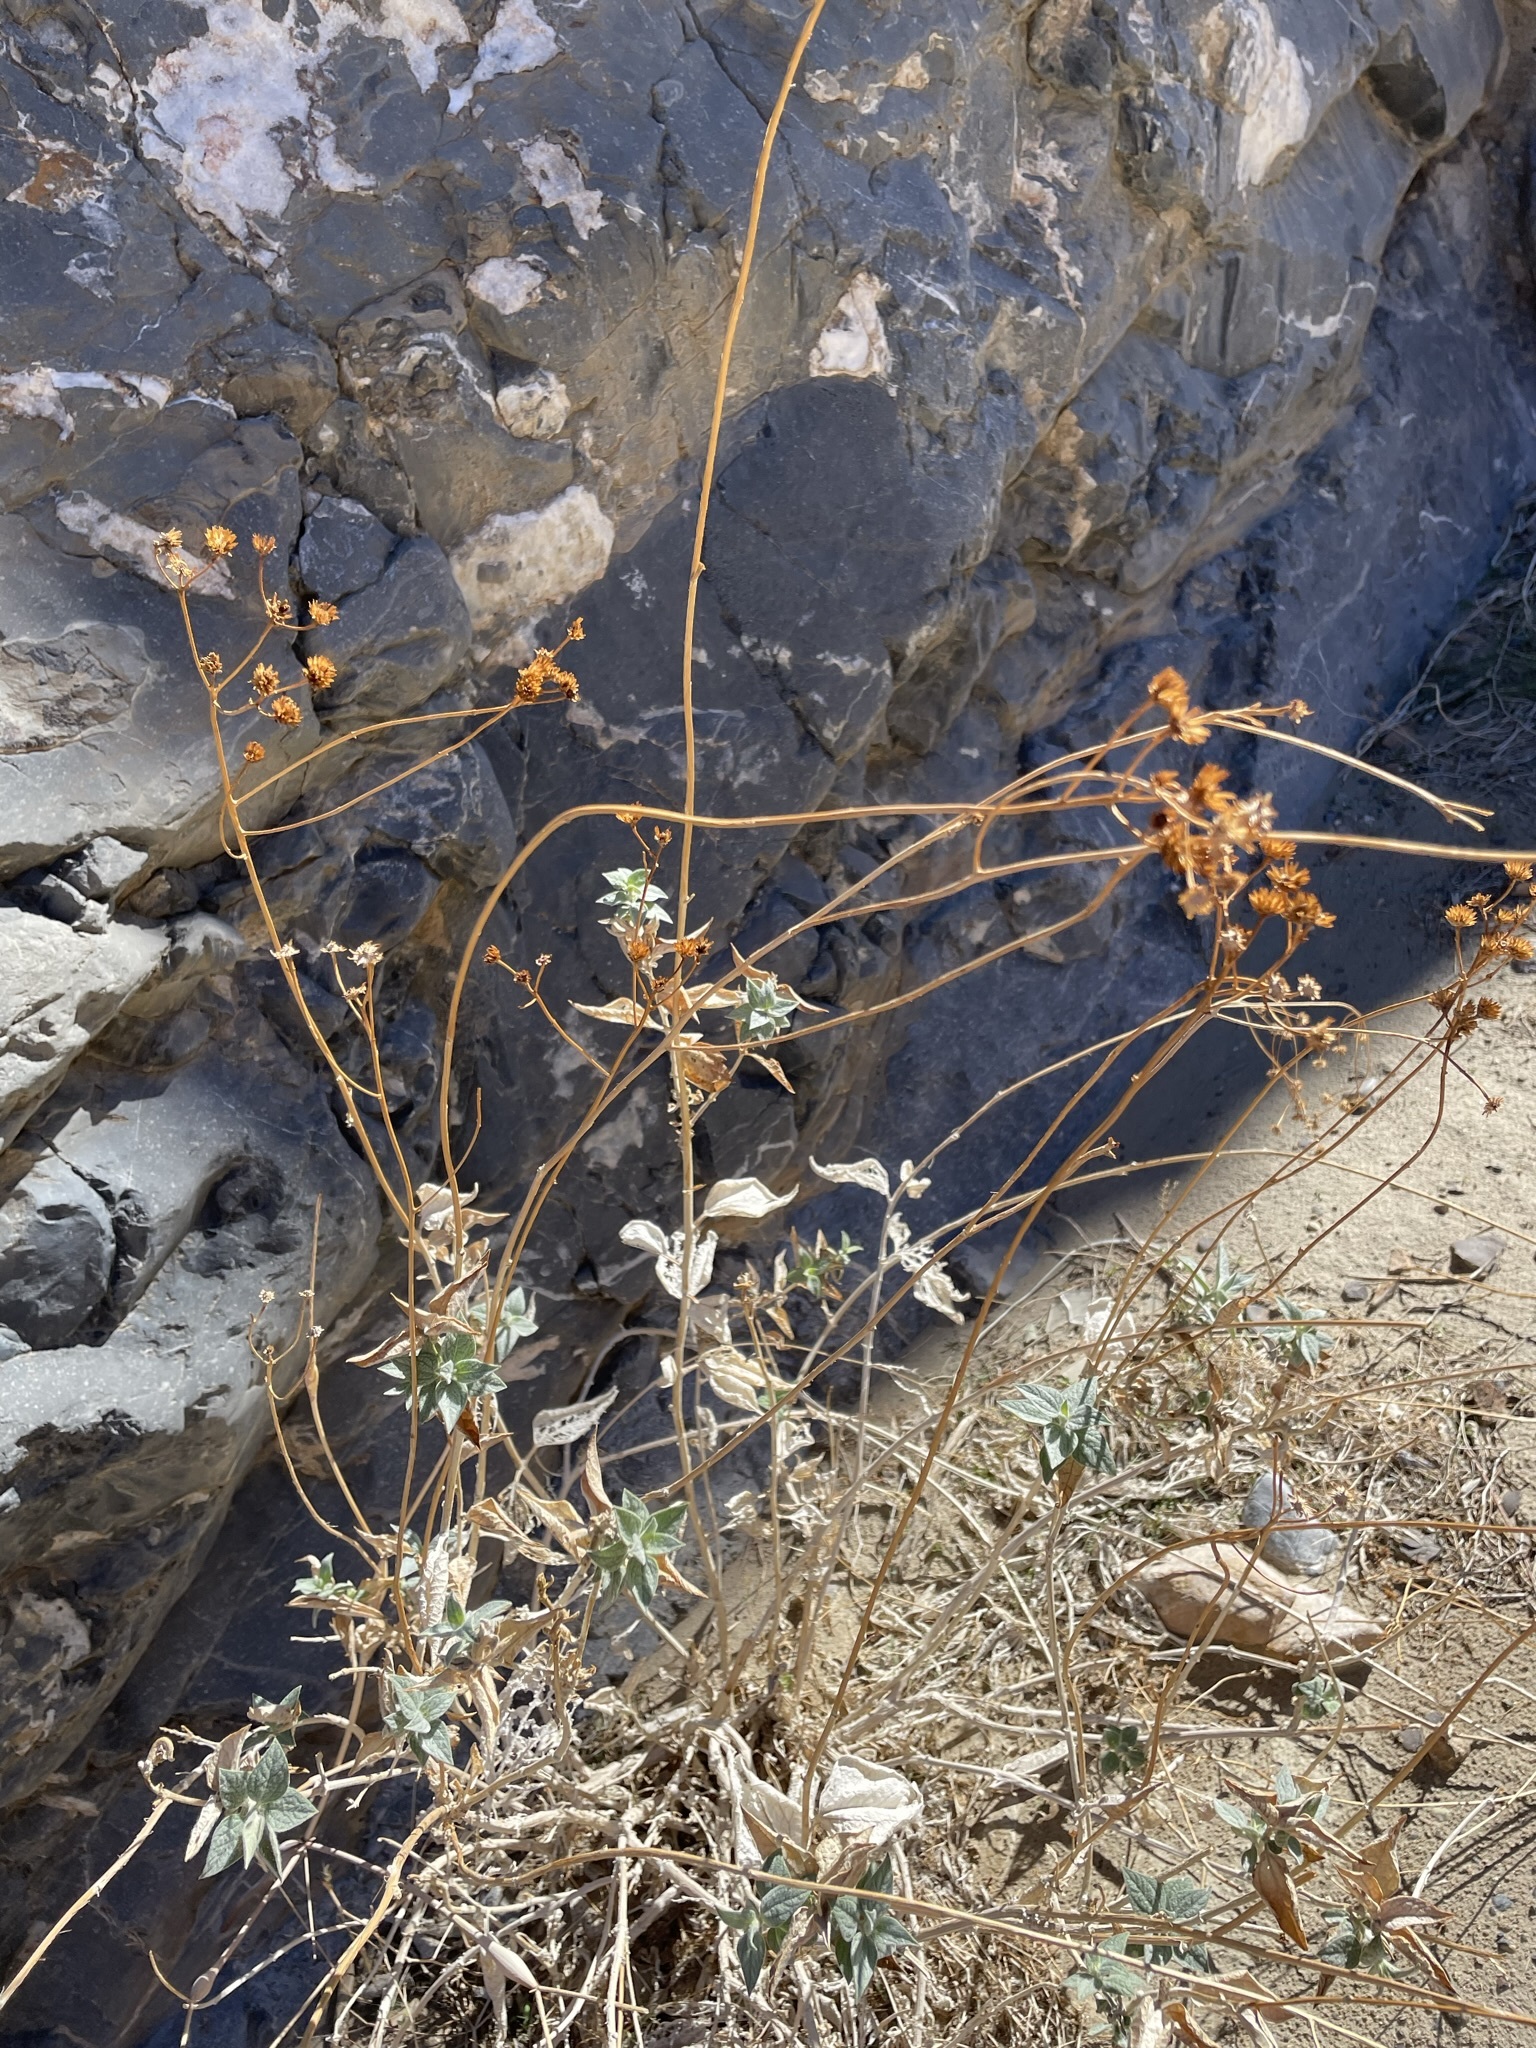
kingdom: Plantae
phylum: Tracheophyta
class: Magnoliopsida
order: Asterales
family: Asteraceae
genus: Bahiopsis
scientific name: Bahiopsis reticulata
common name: Death valley goldeneye
